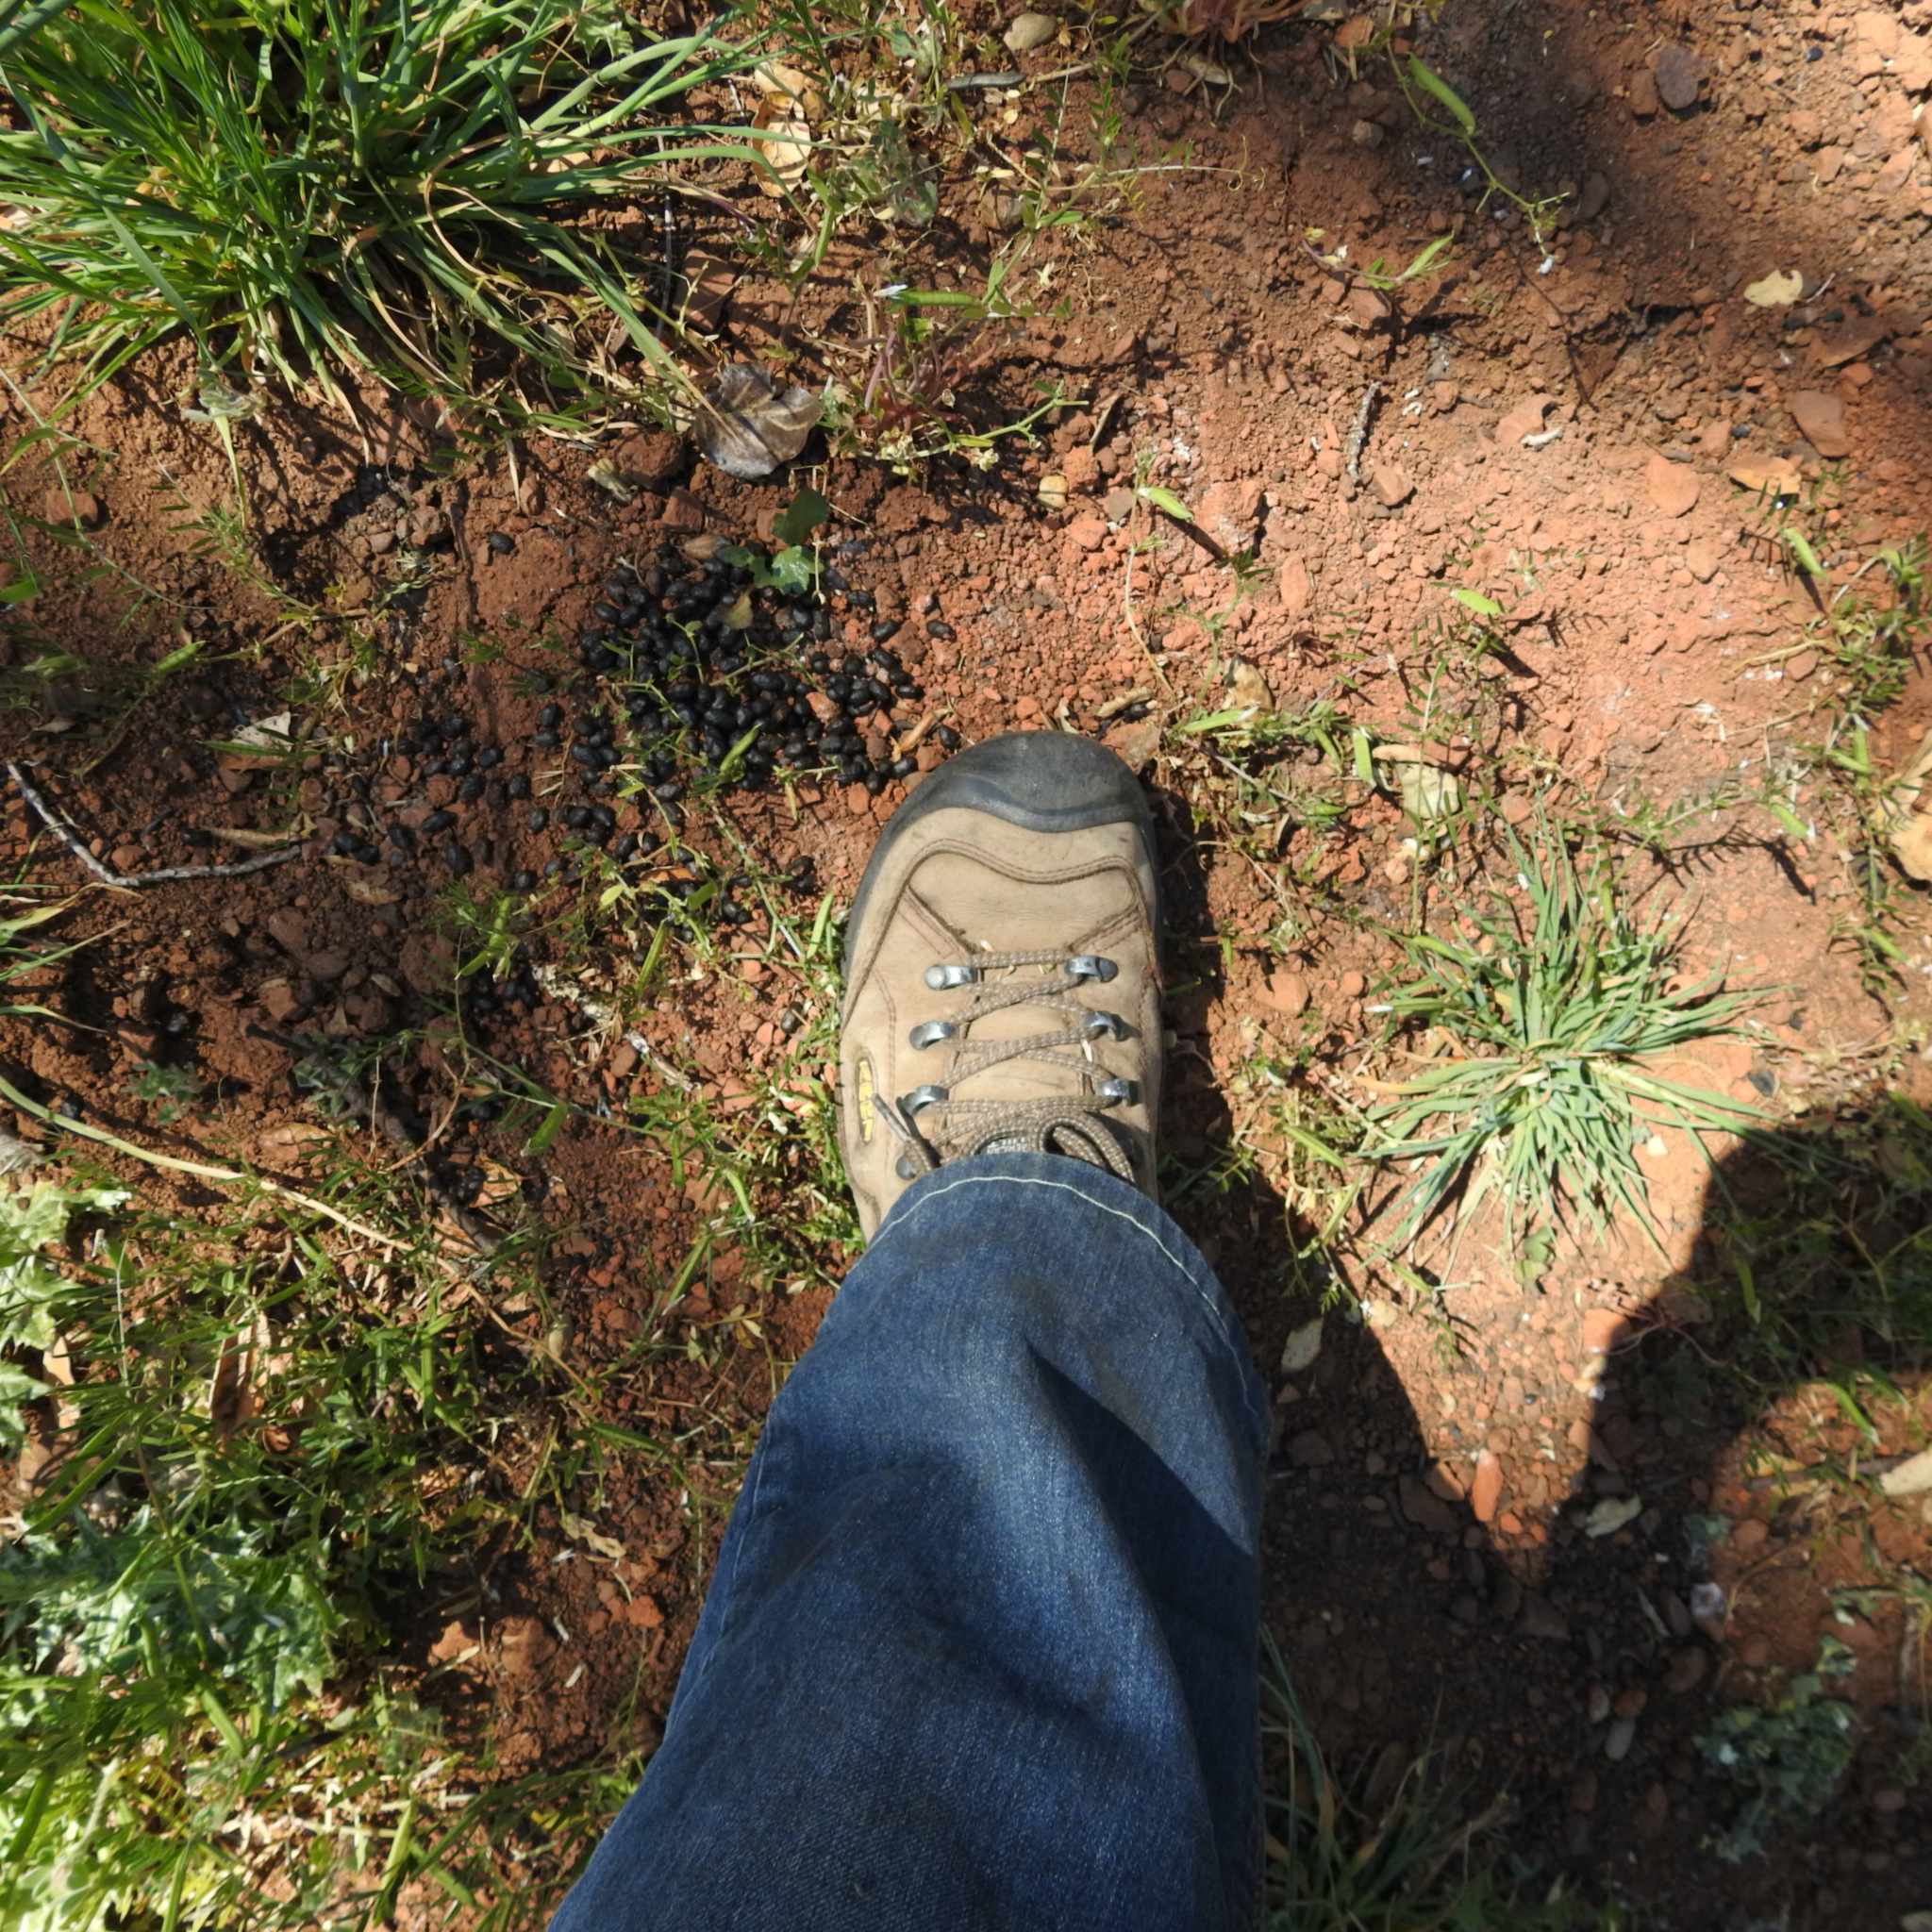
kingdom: Animalia
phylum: Chordata
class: Mammalia
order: Artiodactyla
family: Cervidae
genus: Odocoileus
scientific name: Odocoileus hemionus
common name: Mule deer
